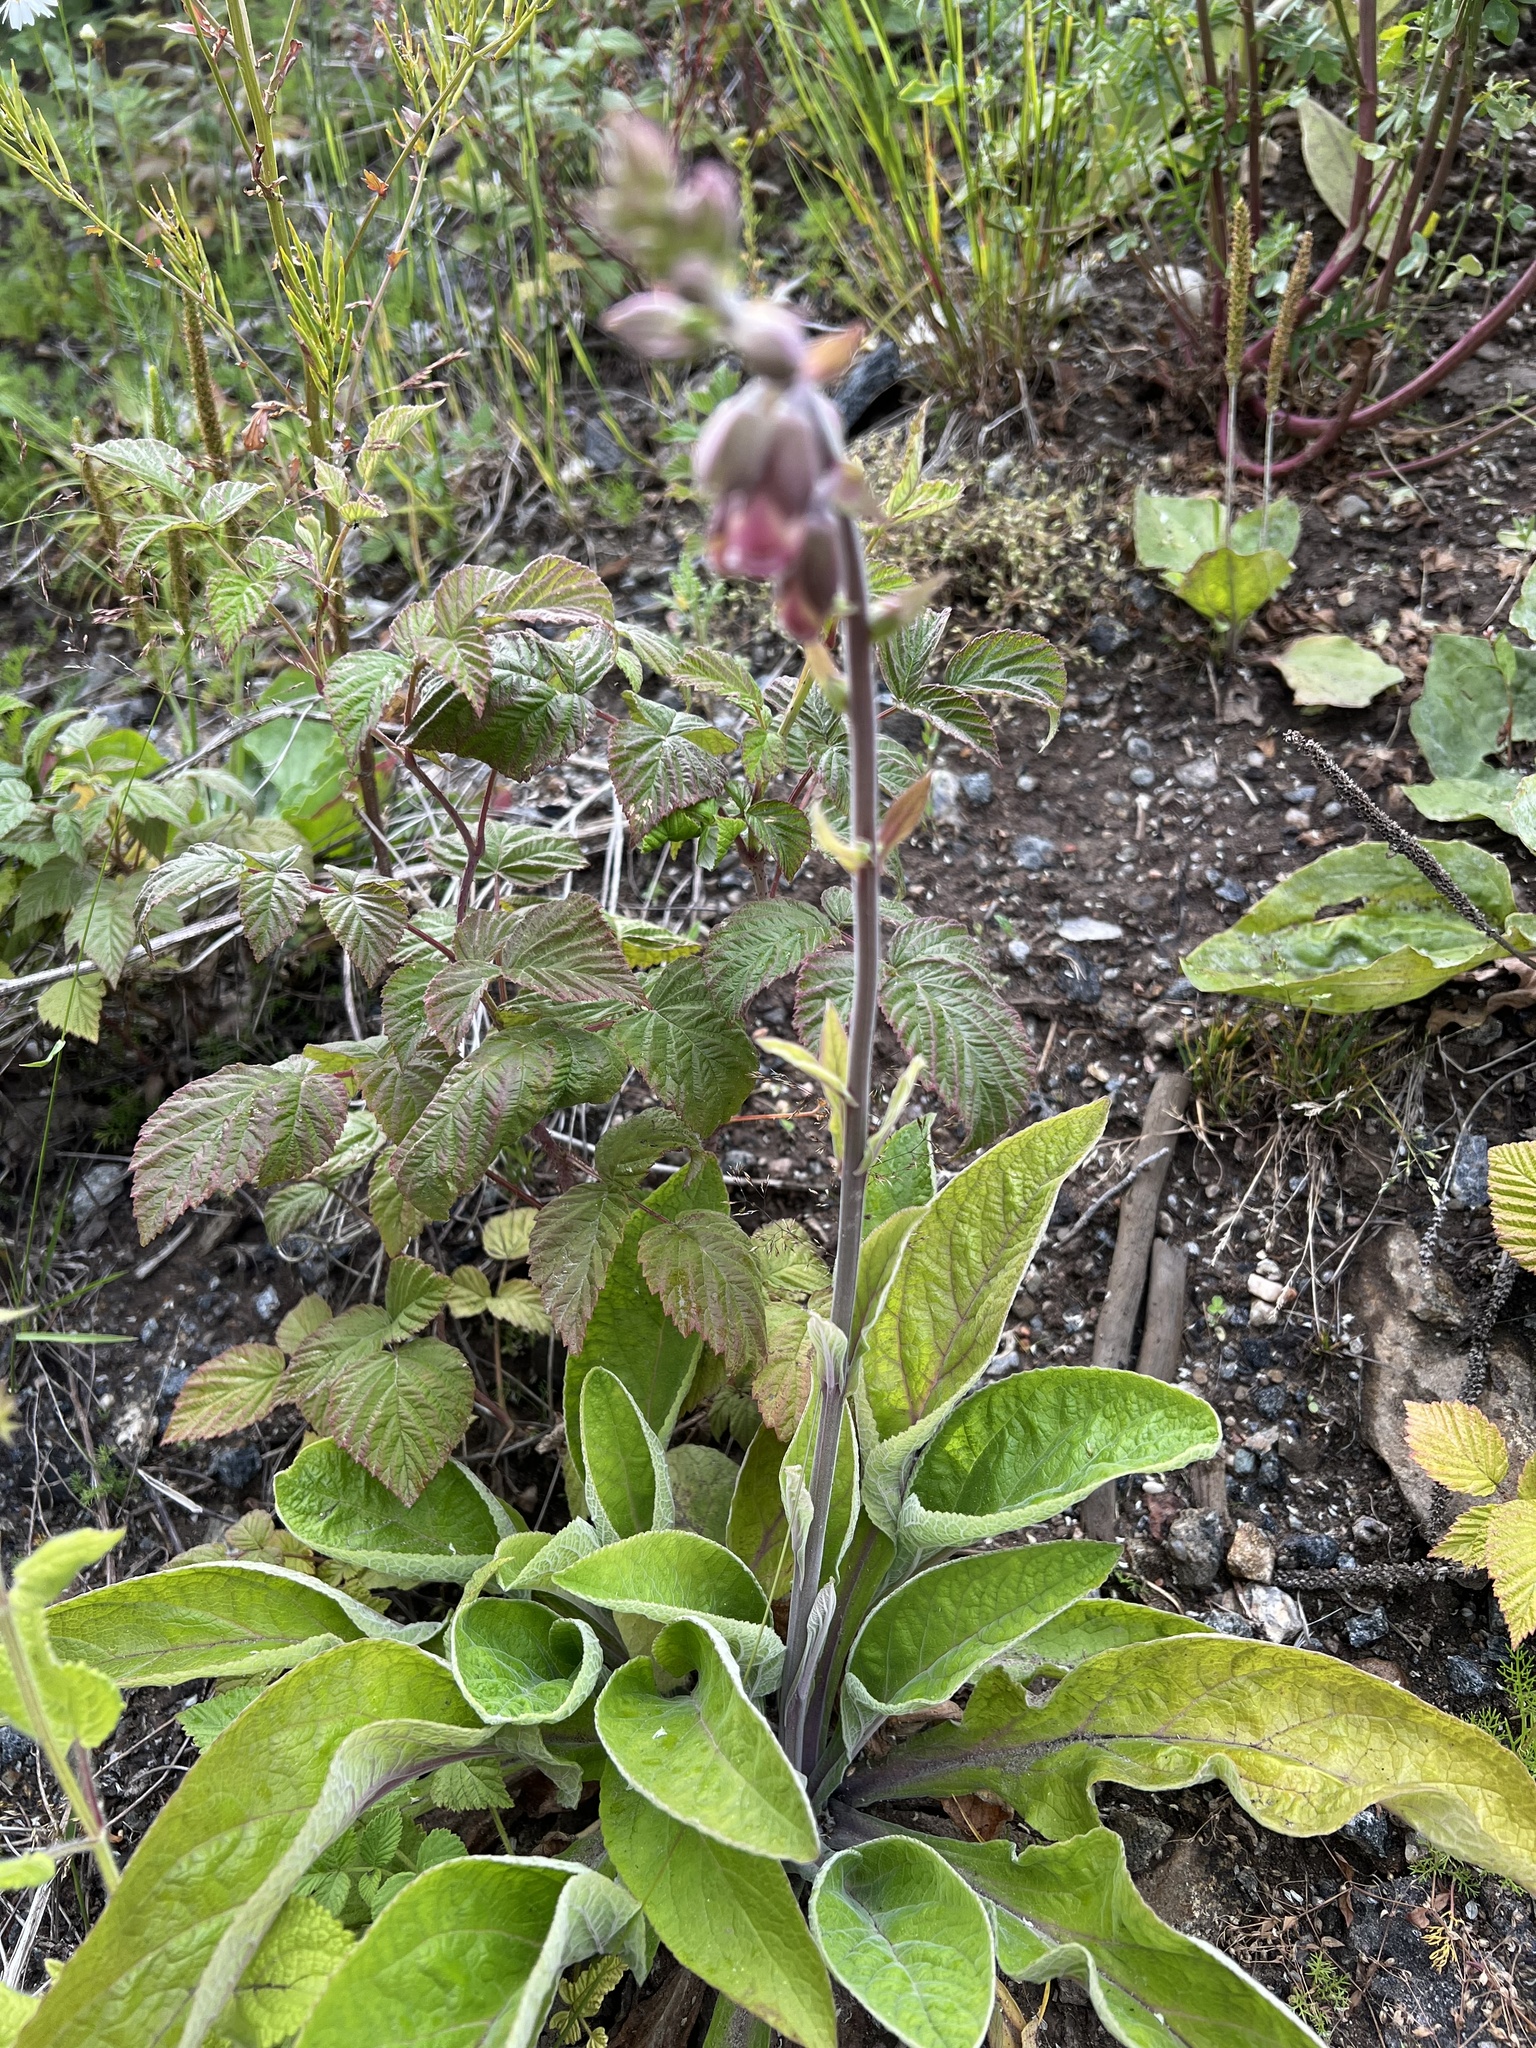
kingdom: Plantae
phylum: Tracheophyta
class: Magnoliopsida
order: Lamiales
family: Plantaginaceae
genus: Digitalis
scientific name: Digitalis purpurea
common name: Foxglove
